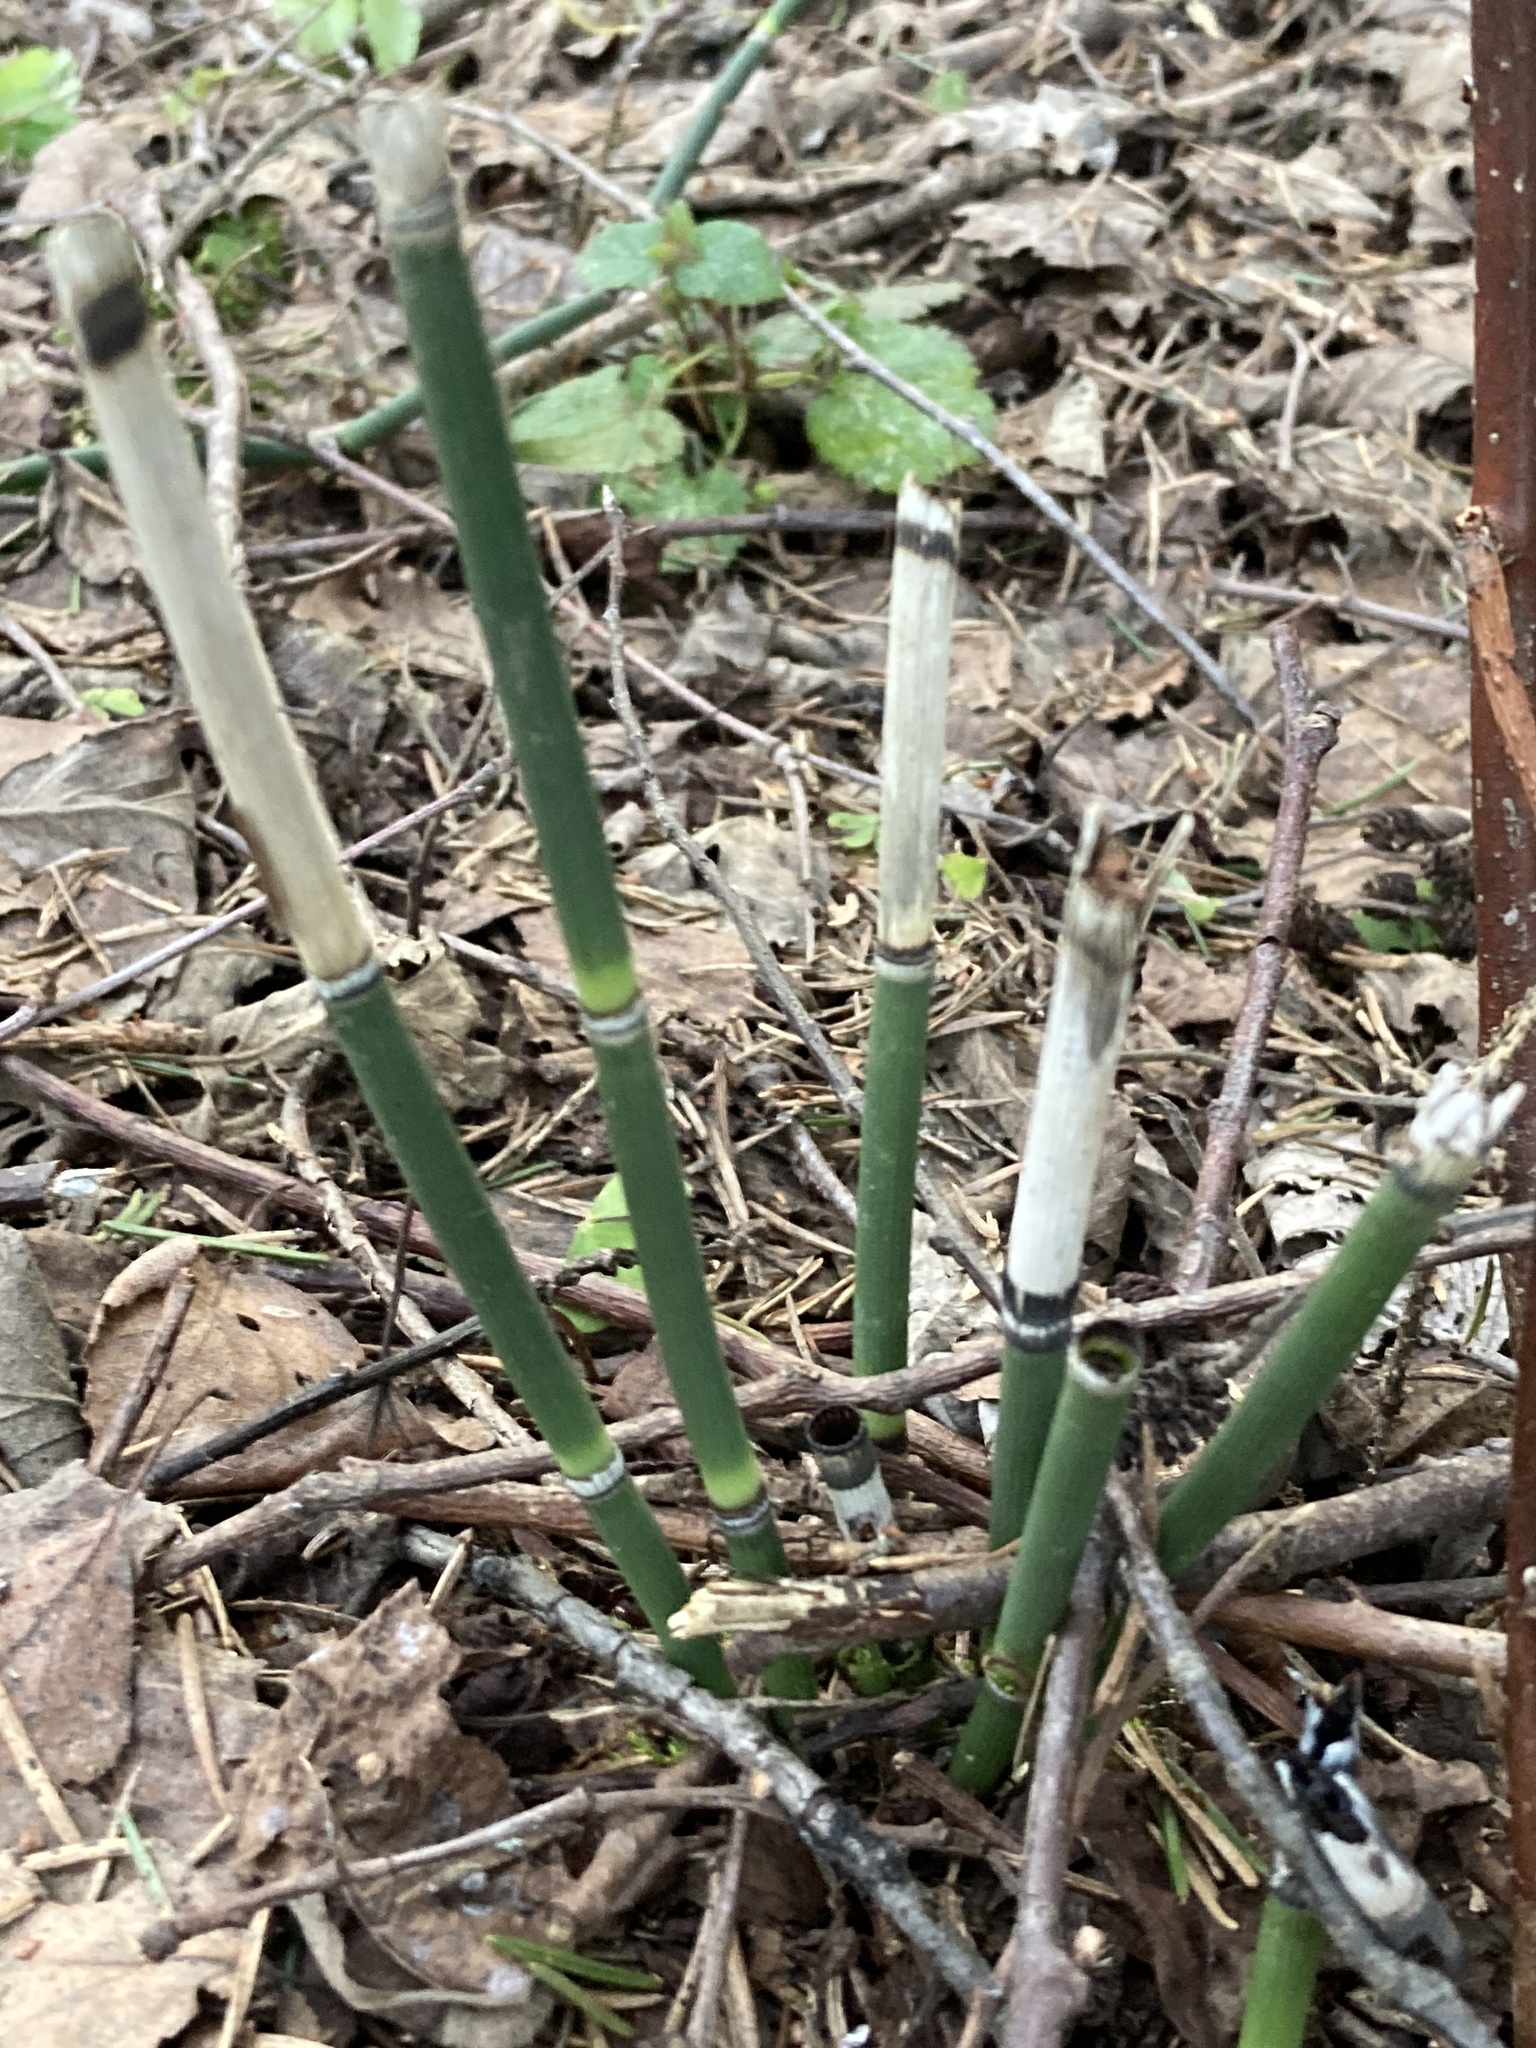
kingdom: Plantae
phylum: Tracheophyta
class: Polypodiopsida
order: Equisetales
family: Equisetaceae
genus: Equisetum
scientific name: Equisetum hyemale
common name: Rough horsetail
